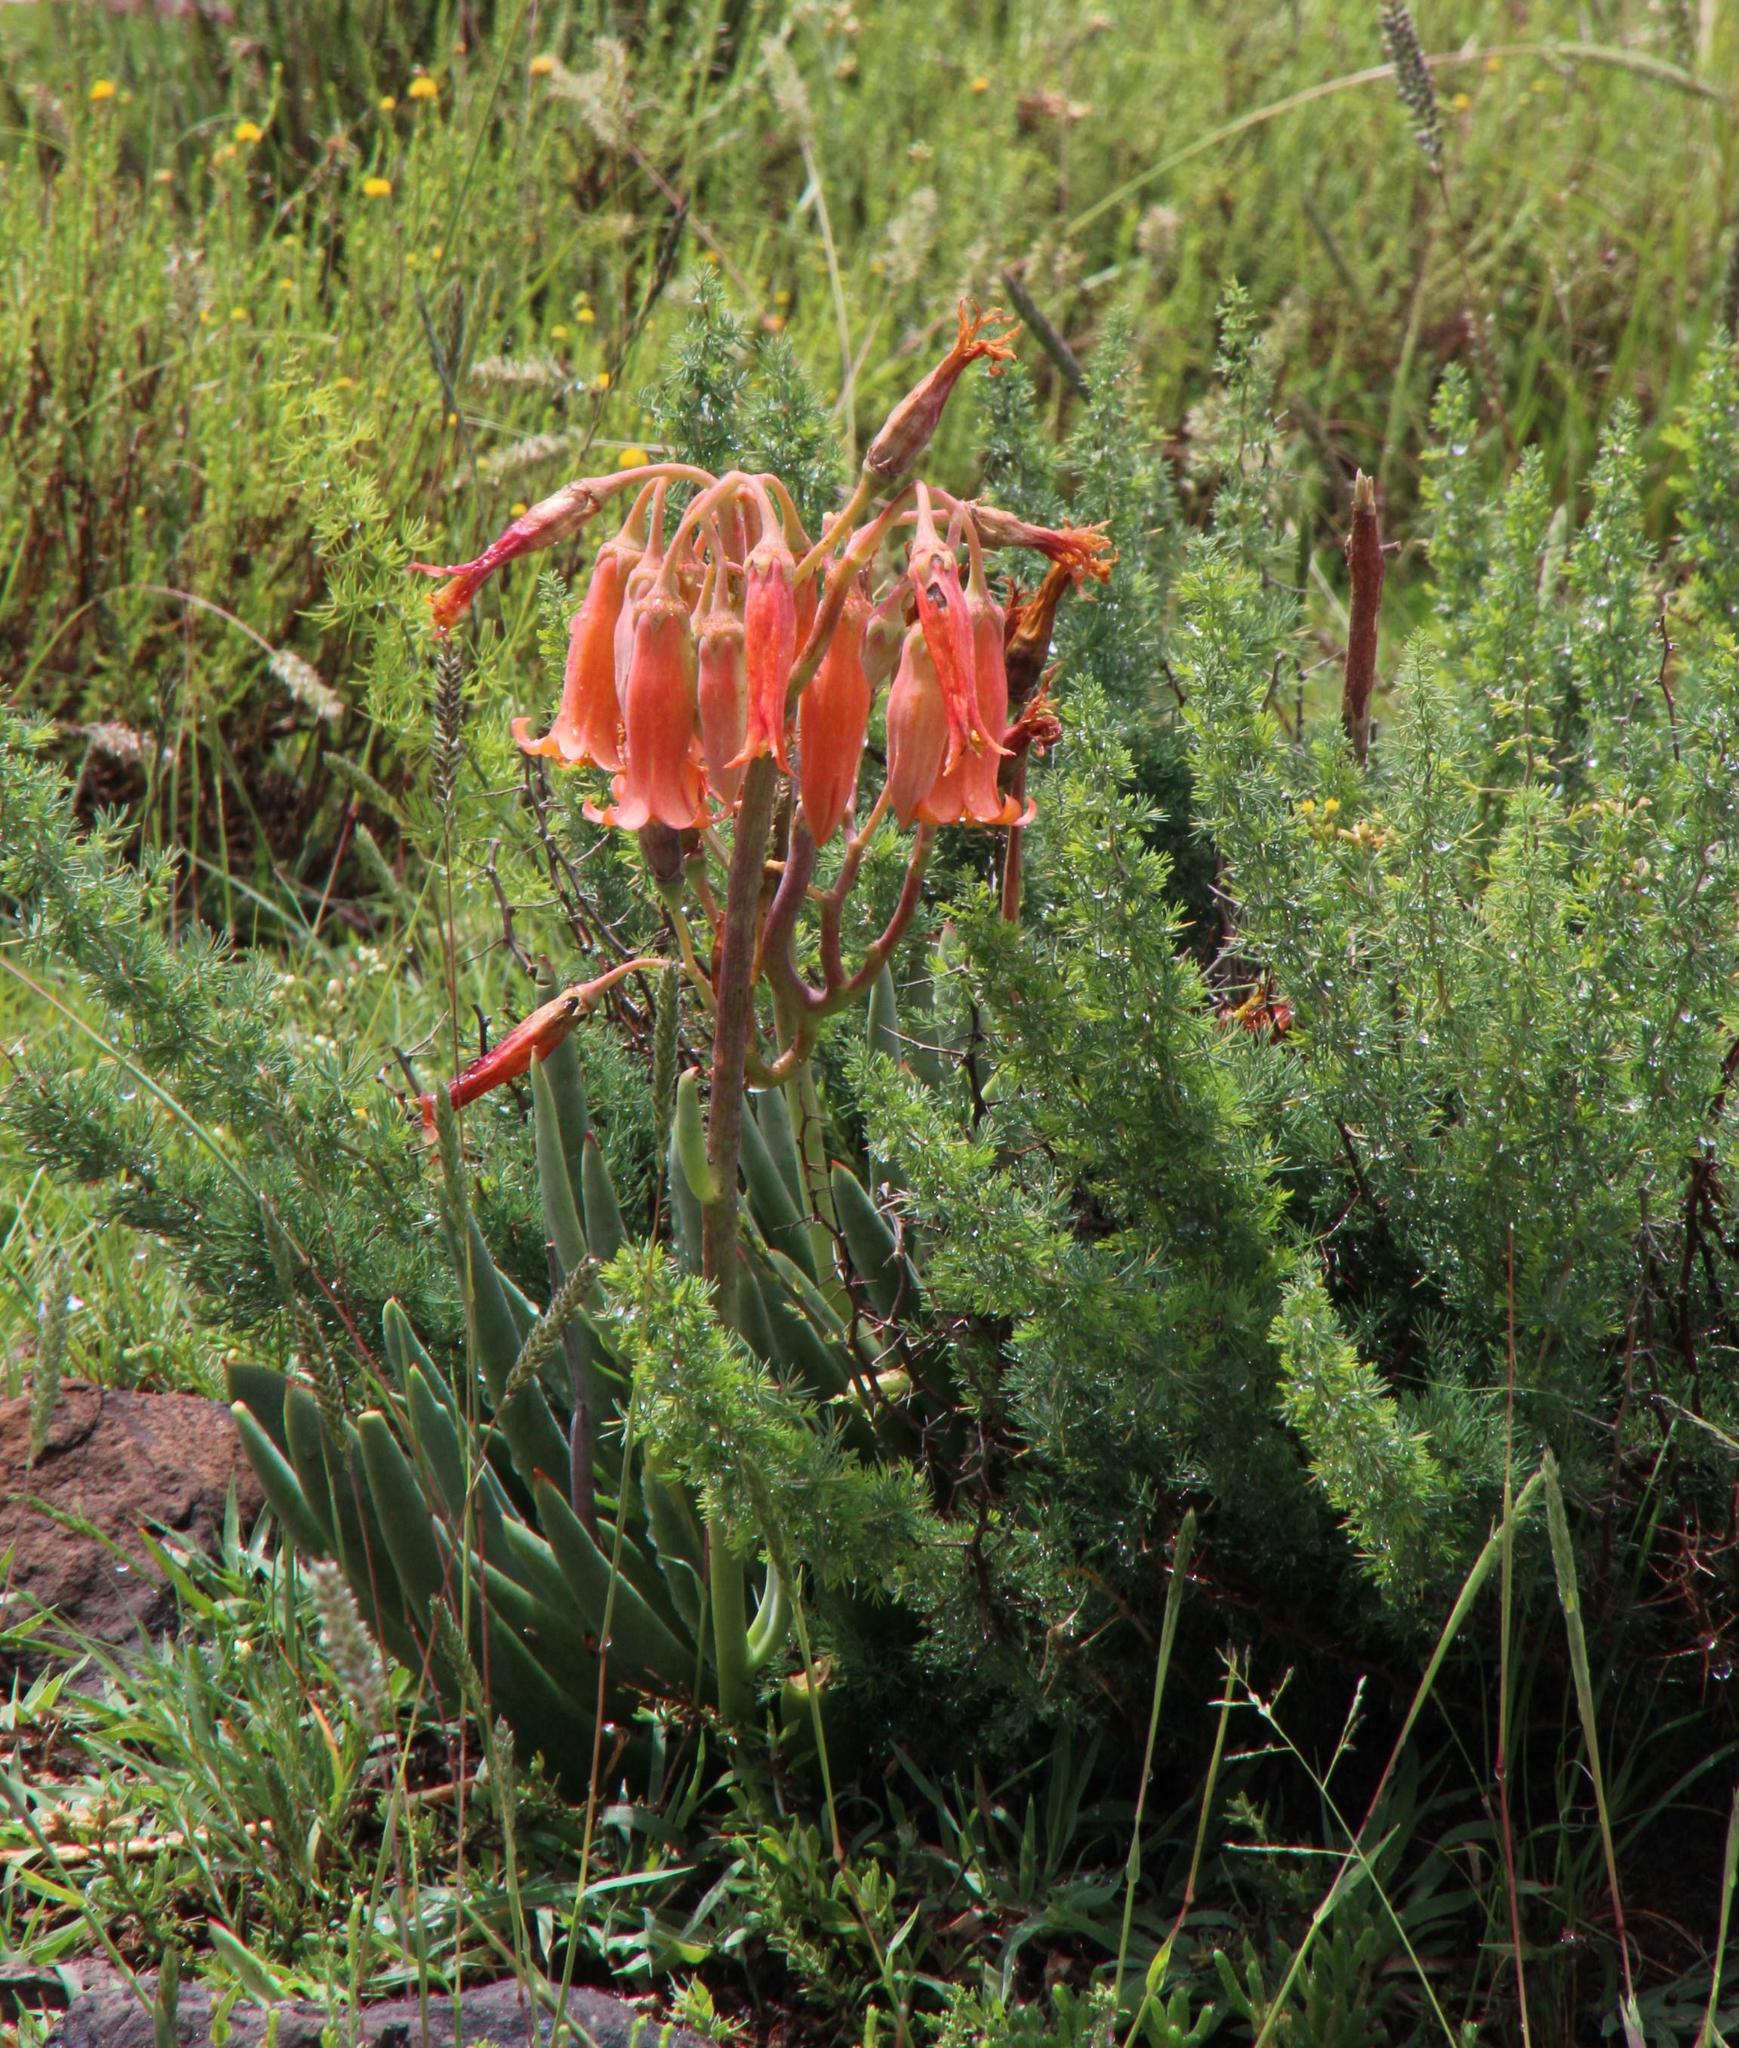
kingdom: Plantae
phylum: Tracheophyta
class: Magnoliopsida
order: Saxifragales
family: Crassulaceae
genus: Cotyledon
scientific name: Cotyledon orbiculata
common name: Pig's ear
